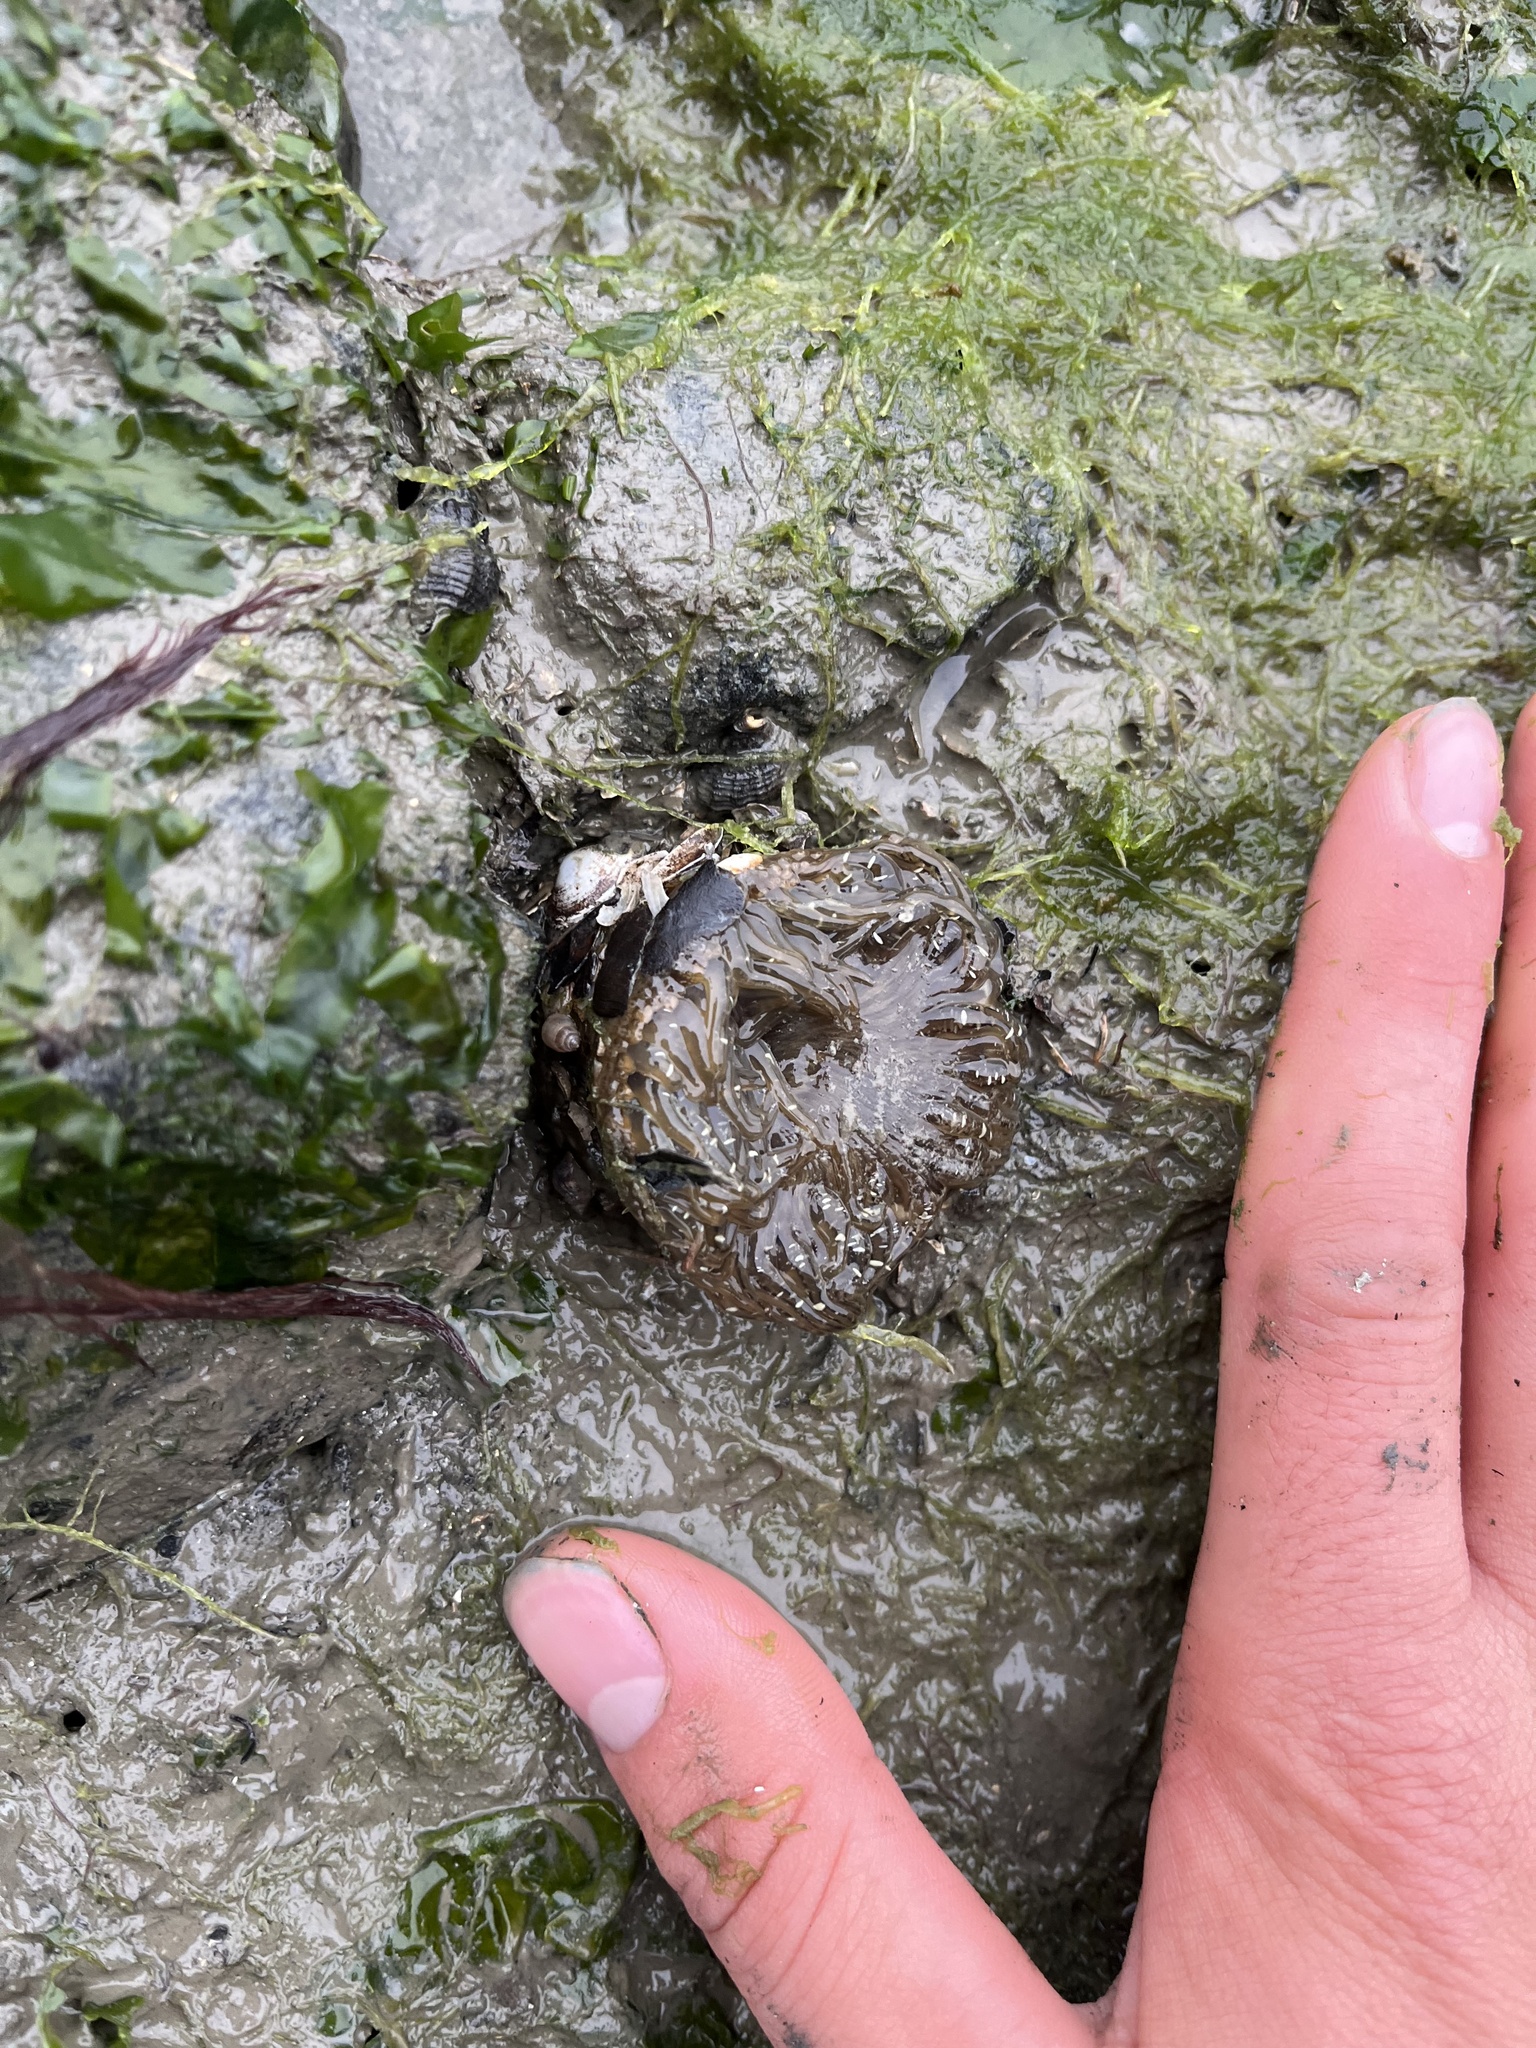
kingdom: Animalia
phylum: Cnidaria
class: Anthozoa
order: Actiniaria
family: Actiniidae
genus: Anthopleura
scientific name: Anthopleura artemisia
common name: Buried sea anemone
